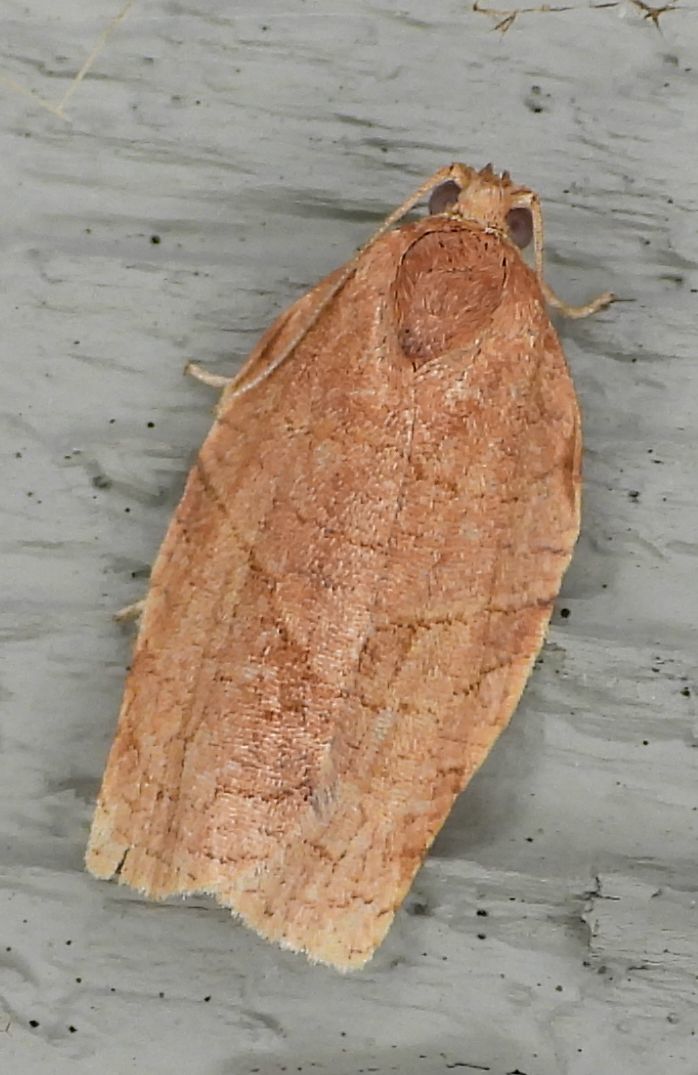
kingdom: Animalia
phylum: Arthropoda
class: Insecta
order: Lepidoptera
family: Tortricidae
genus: Choristoneura
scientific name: Choristoneura rosaceana
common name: Oblique-banded leafroller moth
